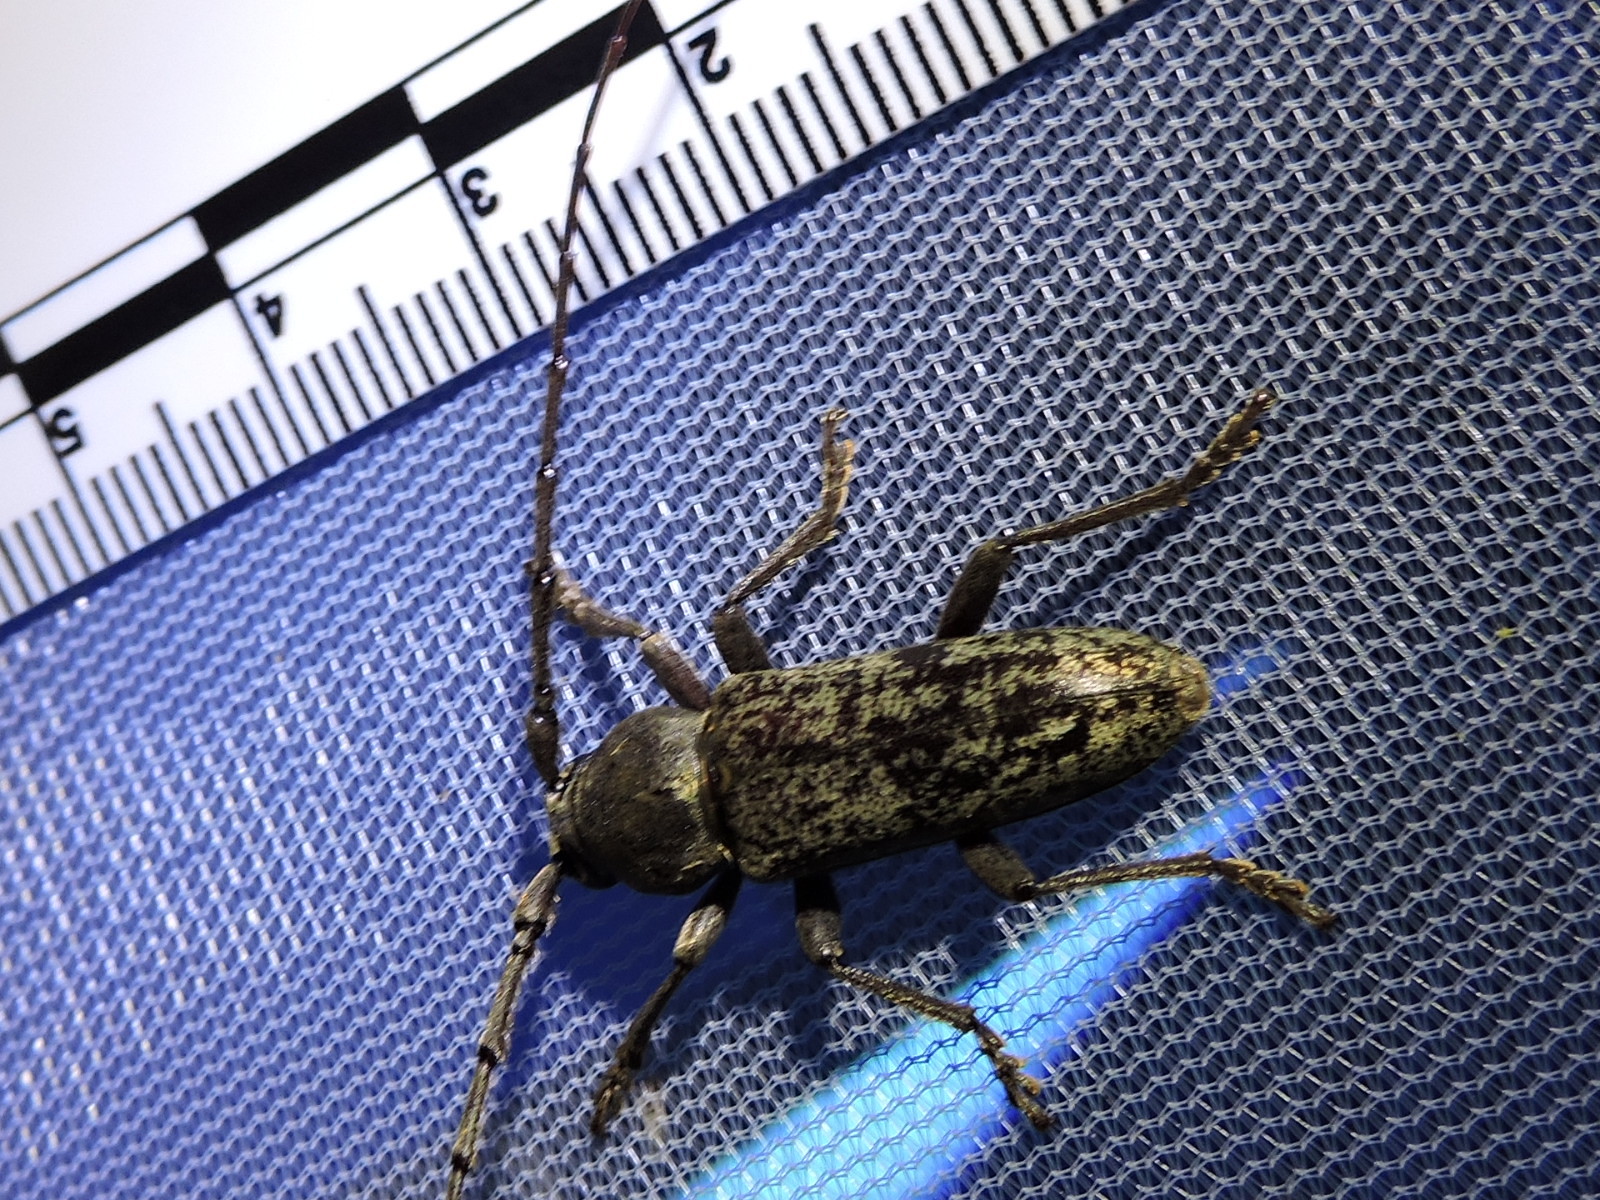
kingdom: Animalia
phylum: Arthropoda
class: Insecta
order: Coleoptera
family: Cerambycidae
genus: Enaphalodes
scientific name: Enaphalodes atomarius
